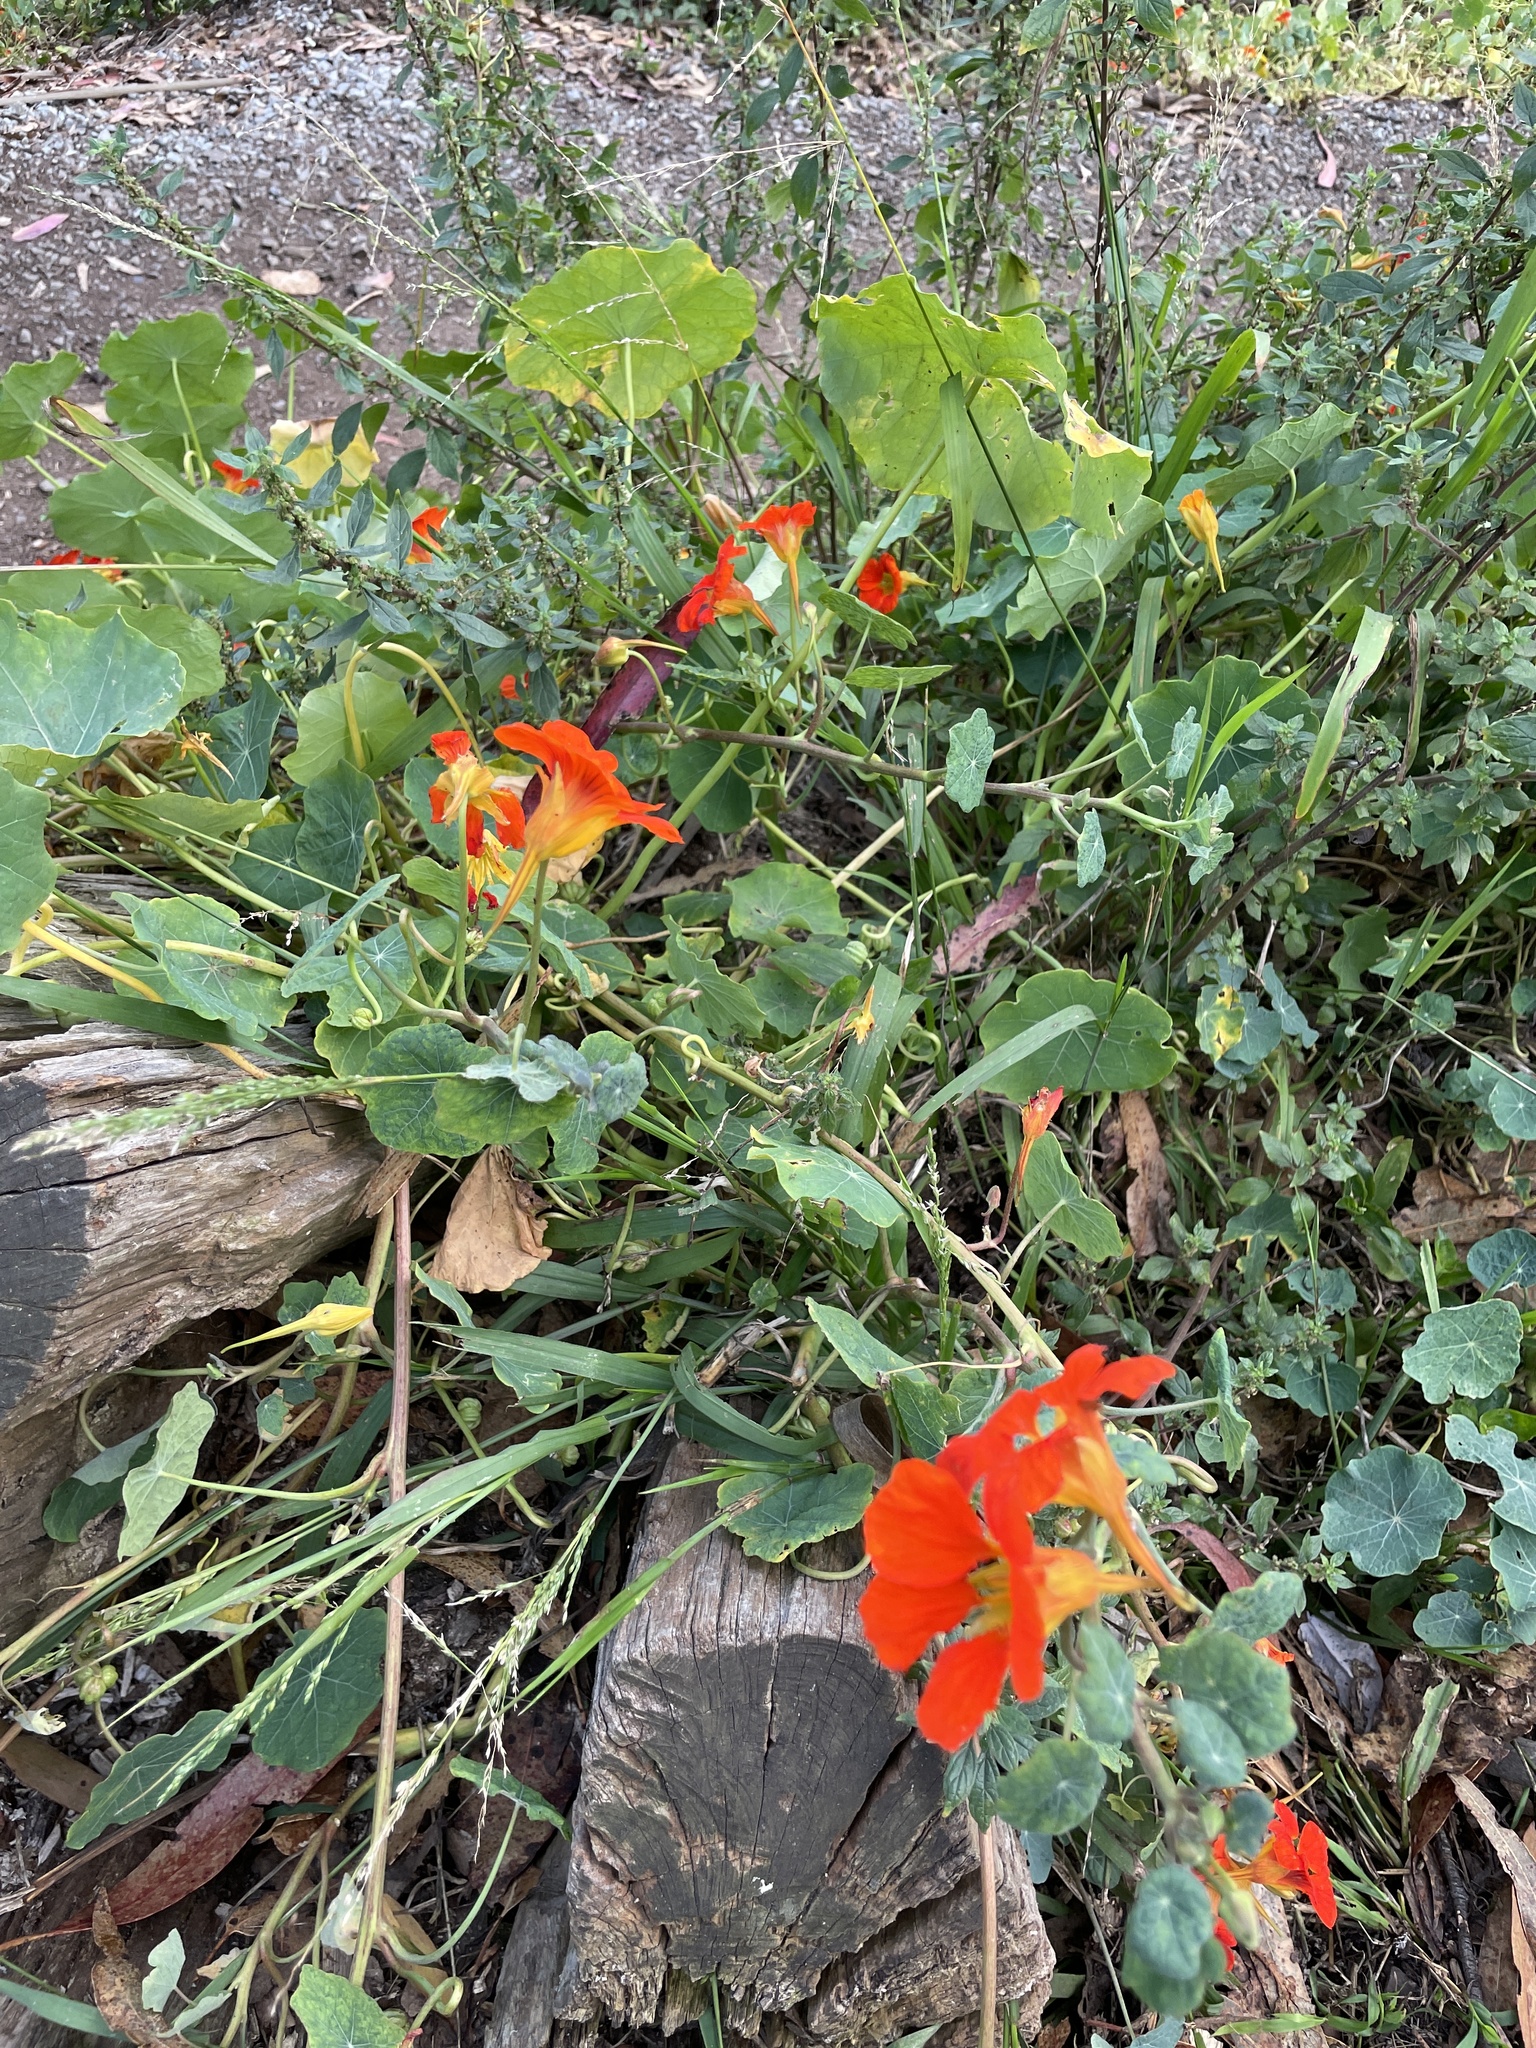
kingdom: Plantae
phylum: Tracheophyta
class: Magnoliopsida
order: Brassicales
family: Tropaeolaceae
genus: Tropaeolum
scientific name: Tropaeolum majus
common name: Nasturtium
